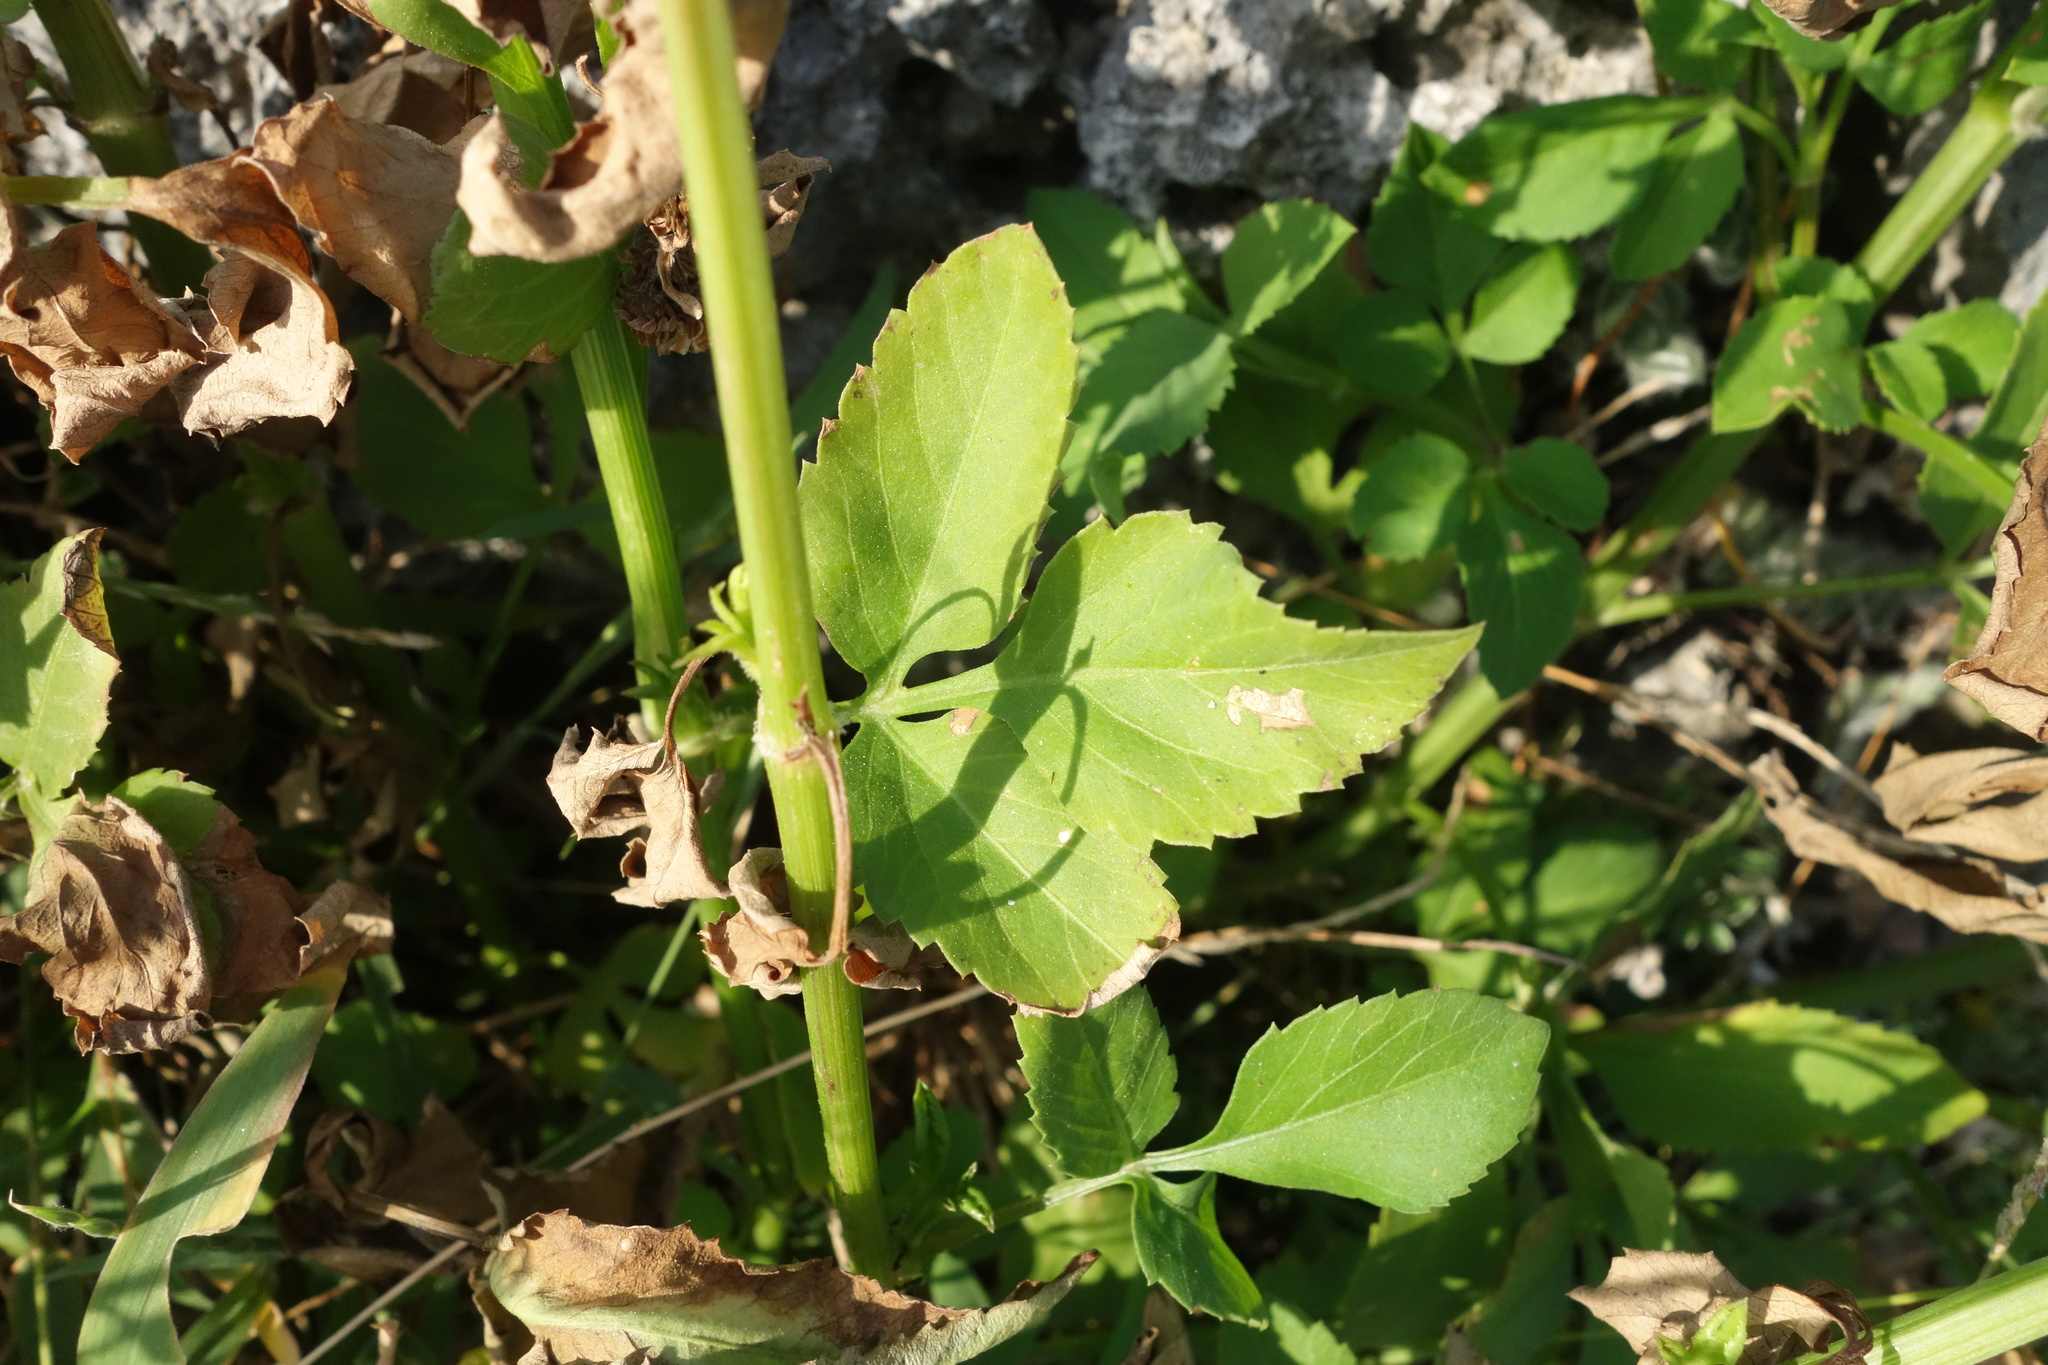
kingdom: Plantae
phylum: Tracheophyta
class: Magnoliopsida
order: Asterales
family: Asteraceae
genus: Bidens
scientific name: Bidens alba
